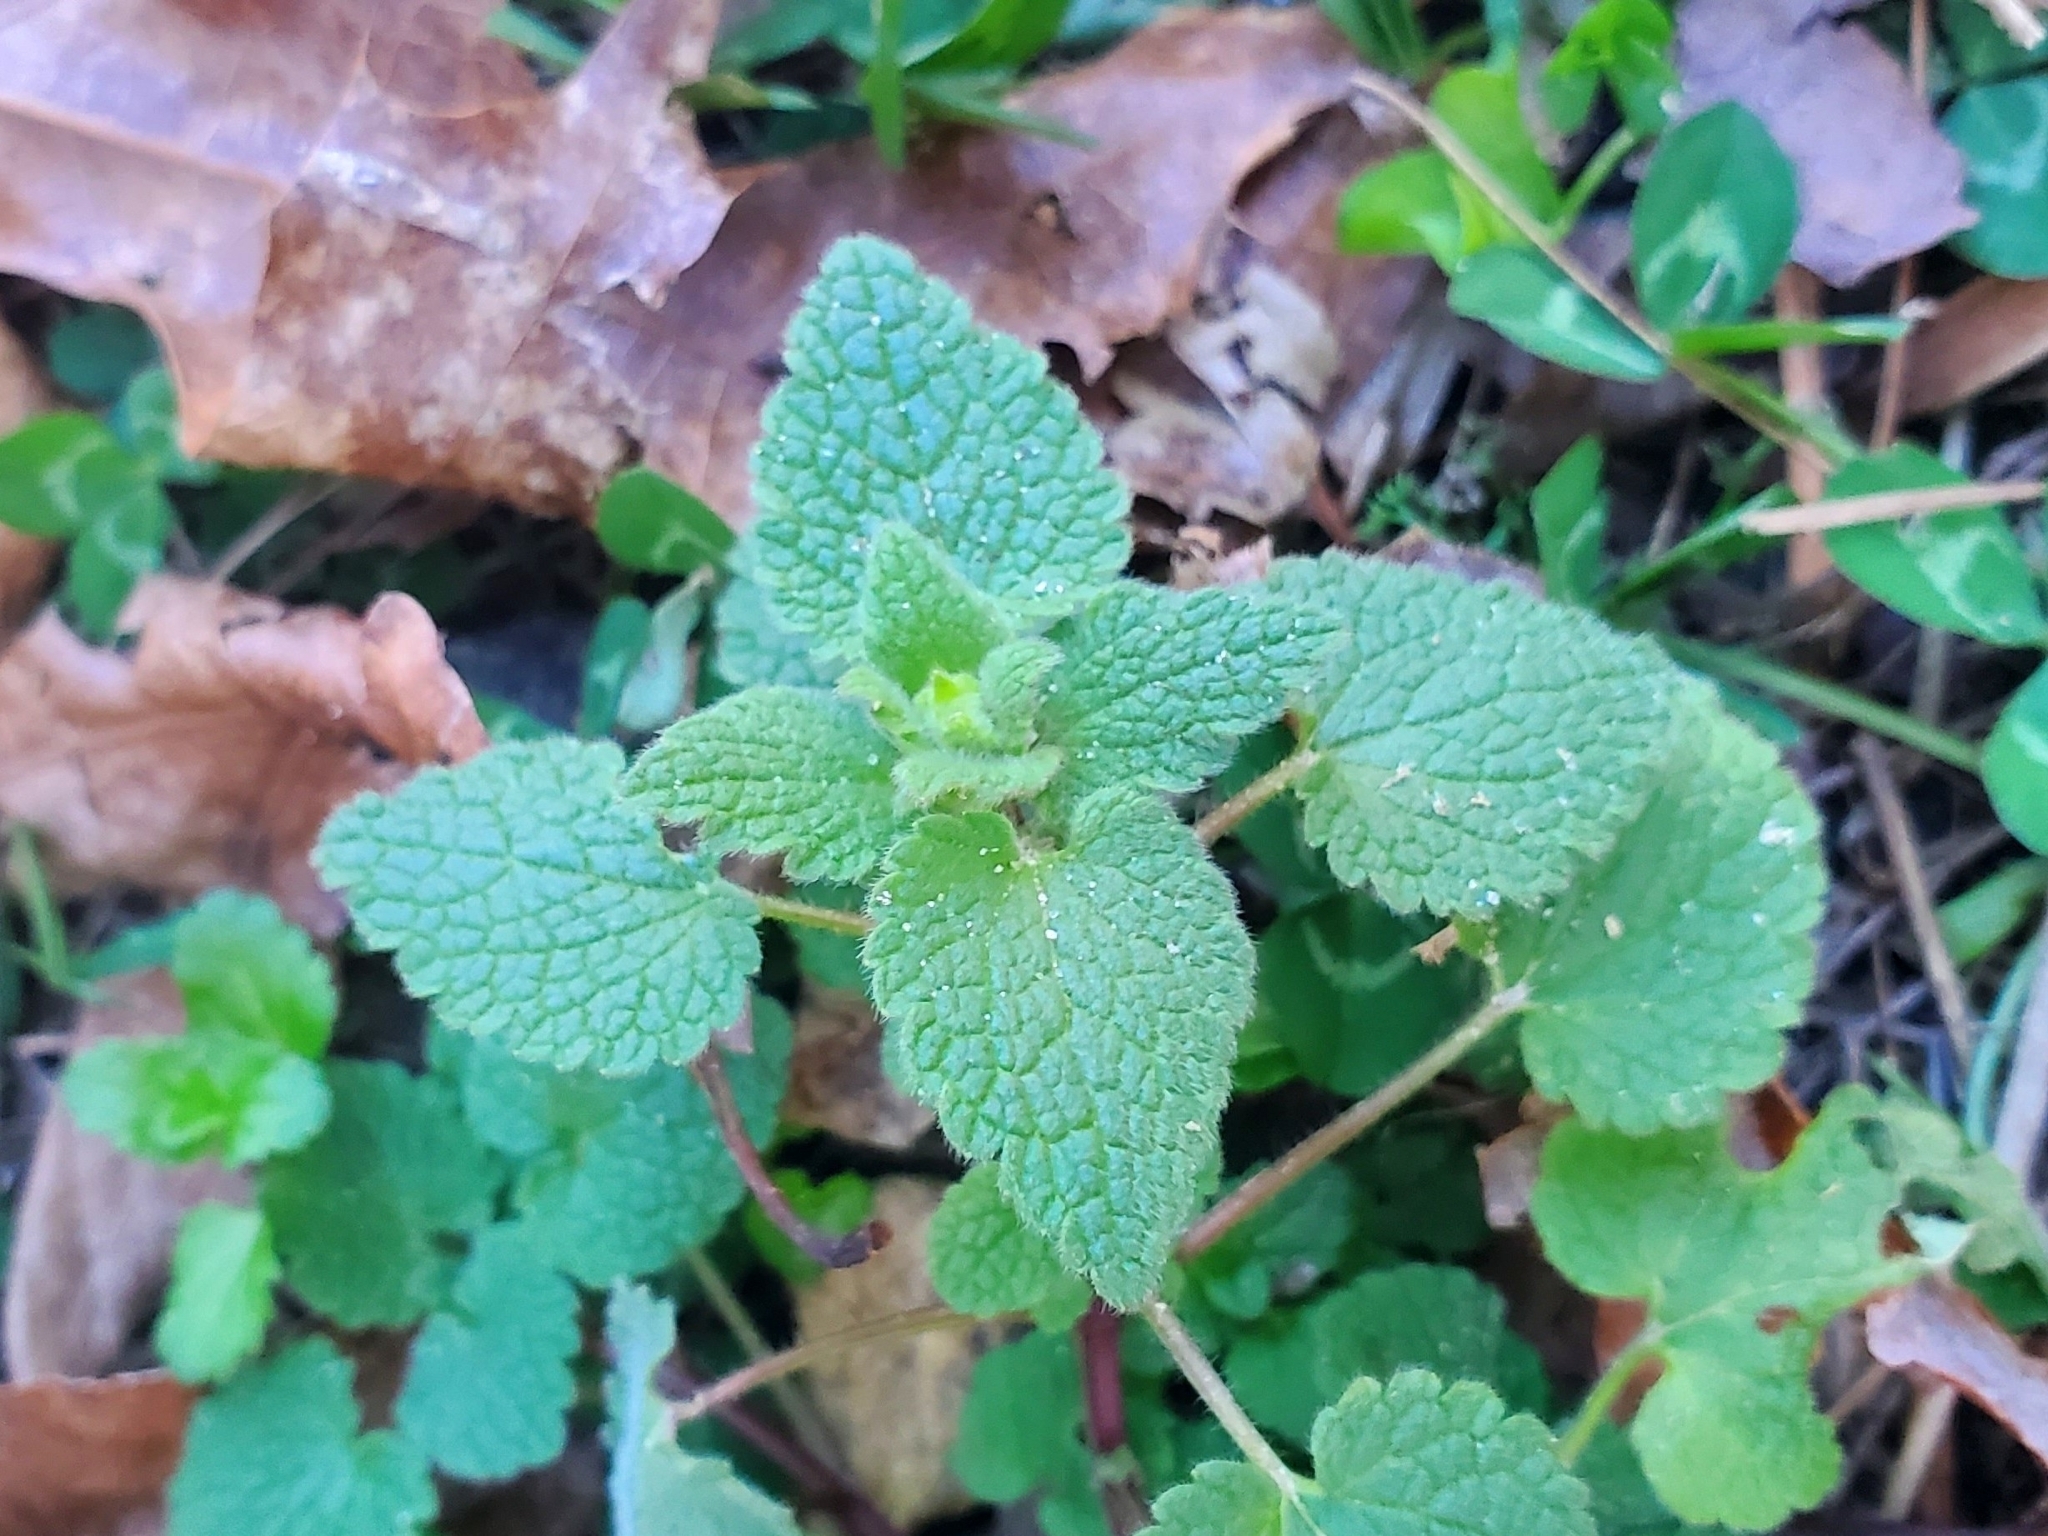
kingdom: Plantae
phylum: Tracheophyta
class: Magnoliopsida
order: Lamiales
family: Lamiaceae
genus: Lamium
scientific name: Lamium purpureum
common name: Red dead-nettle
